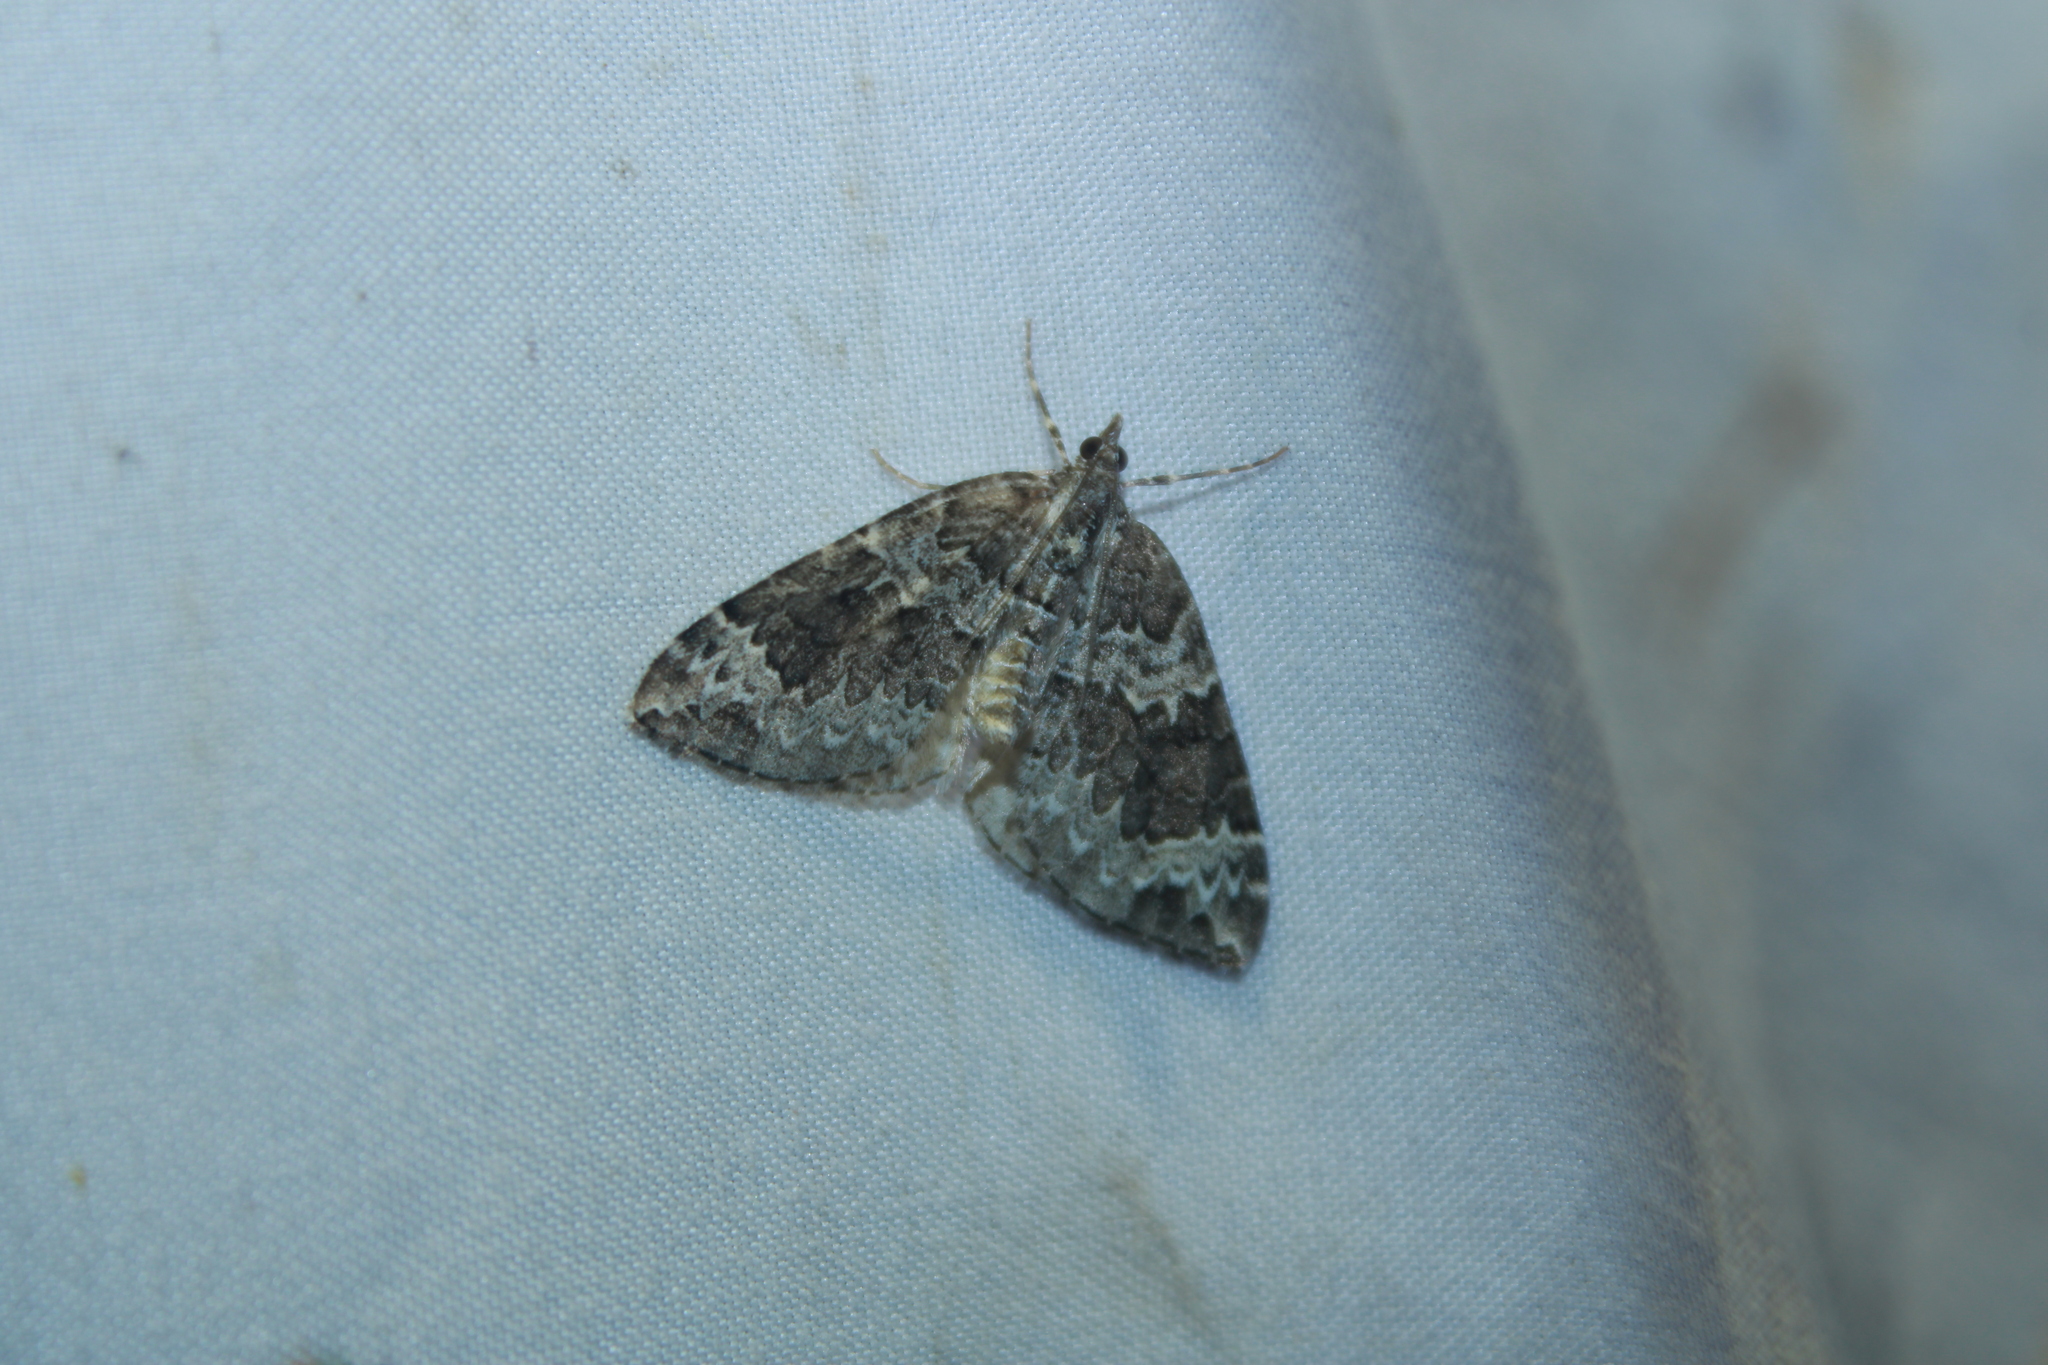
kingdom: Animalia
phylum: Arthropoda
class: Insecta
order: Lepidoptera
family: Geometridae
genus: Eulithis
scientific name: Eulithis explanata
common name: White eulithis
